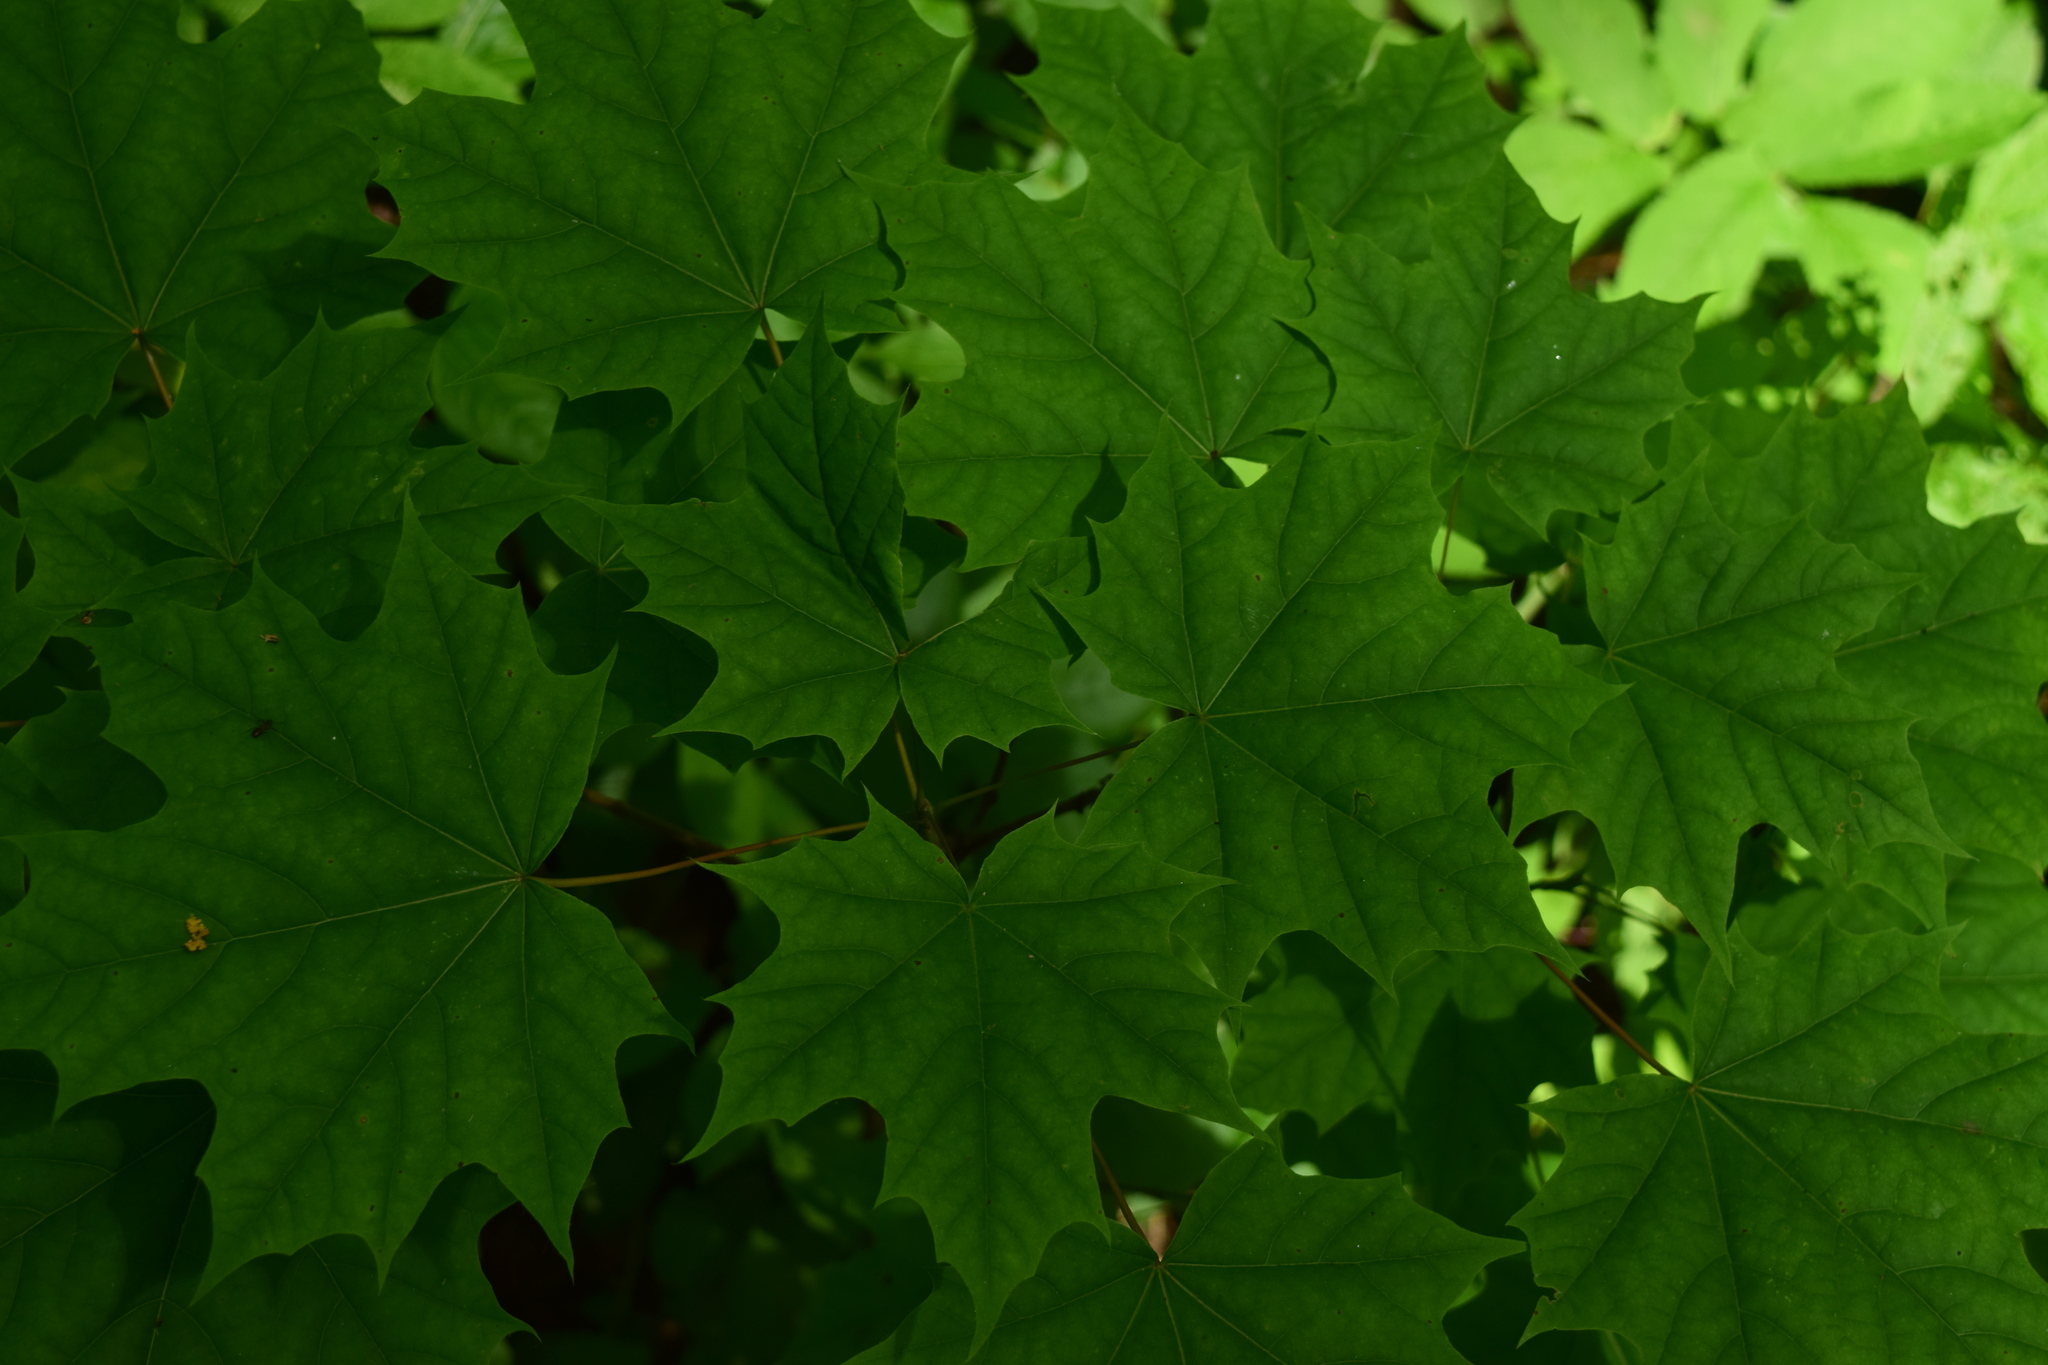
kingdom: Plantae
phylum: Tracheophyta
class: Magnoliopsida
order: Sapindales
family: Sapindaceae
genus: Acer
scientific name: Acer platanoides
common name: Norway maple
